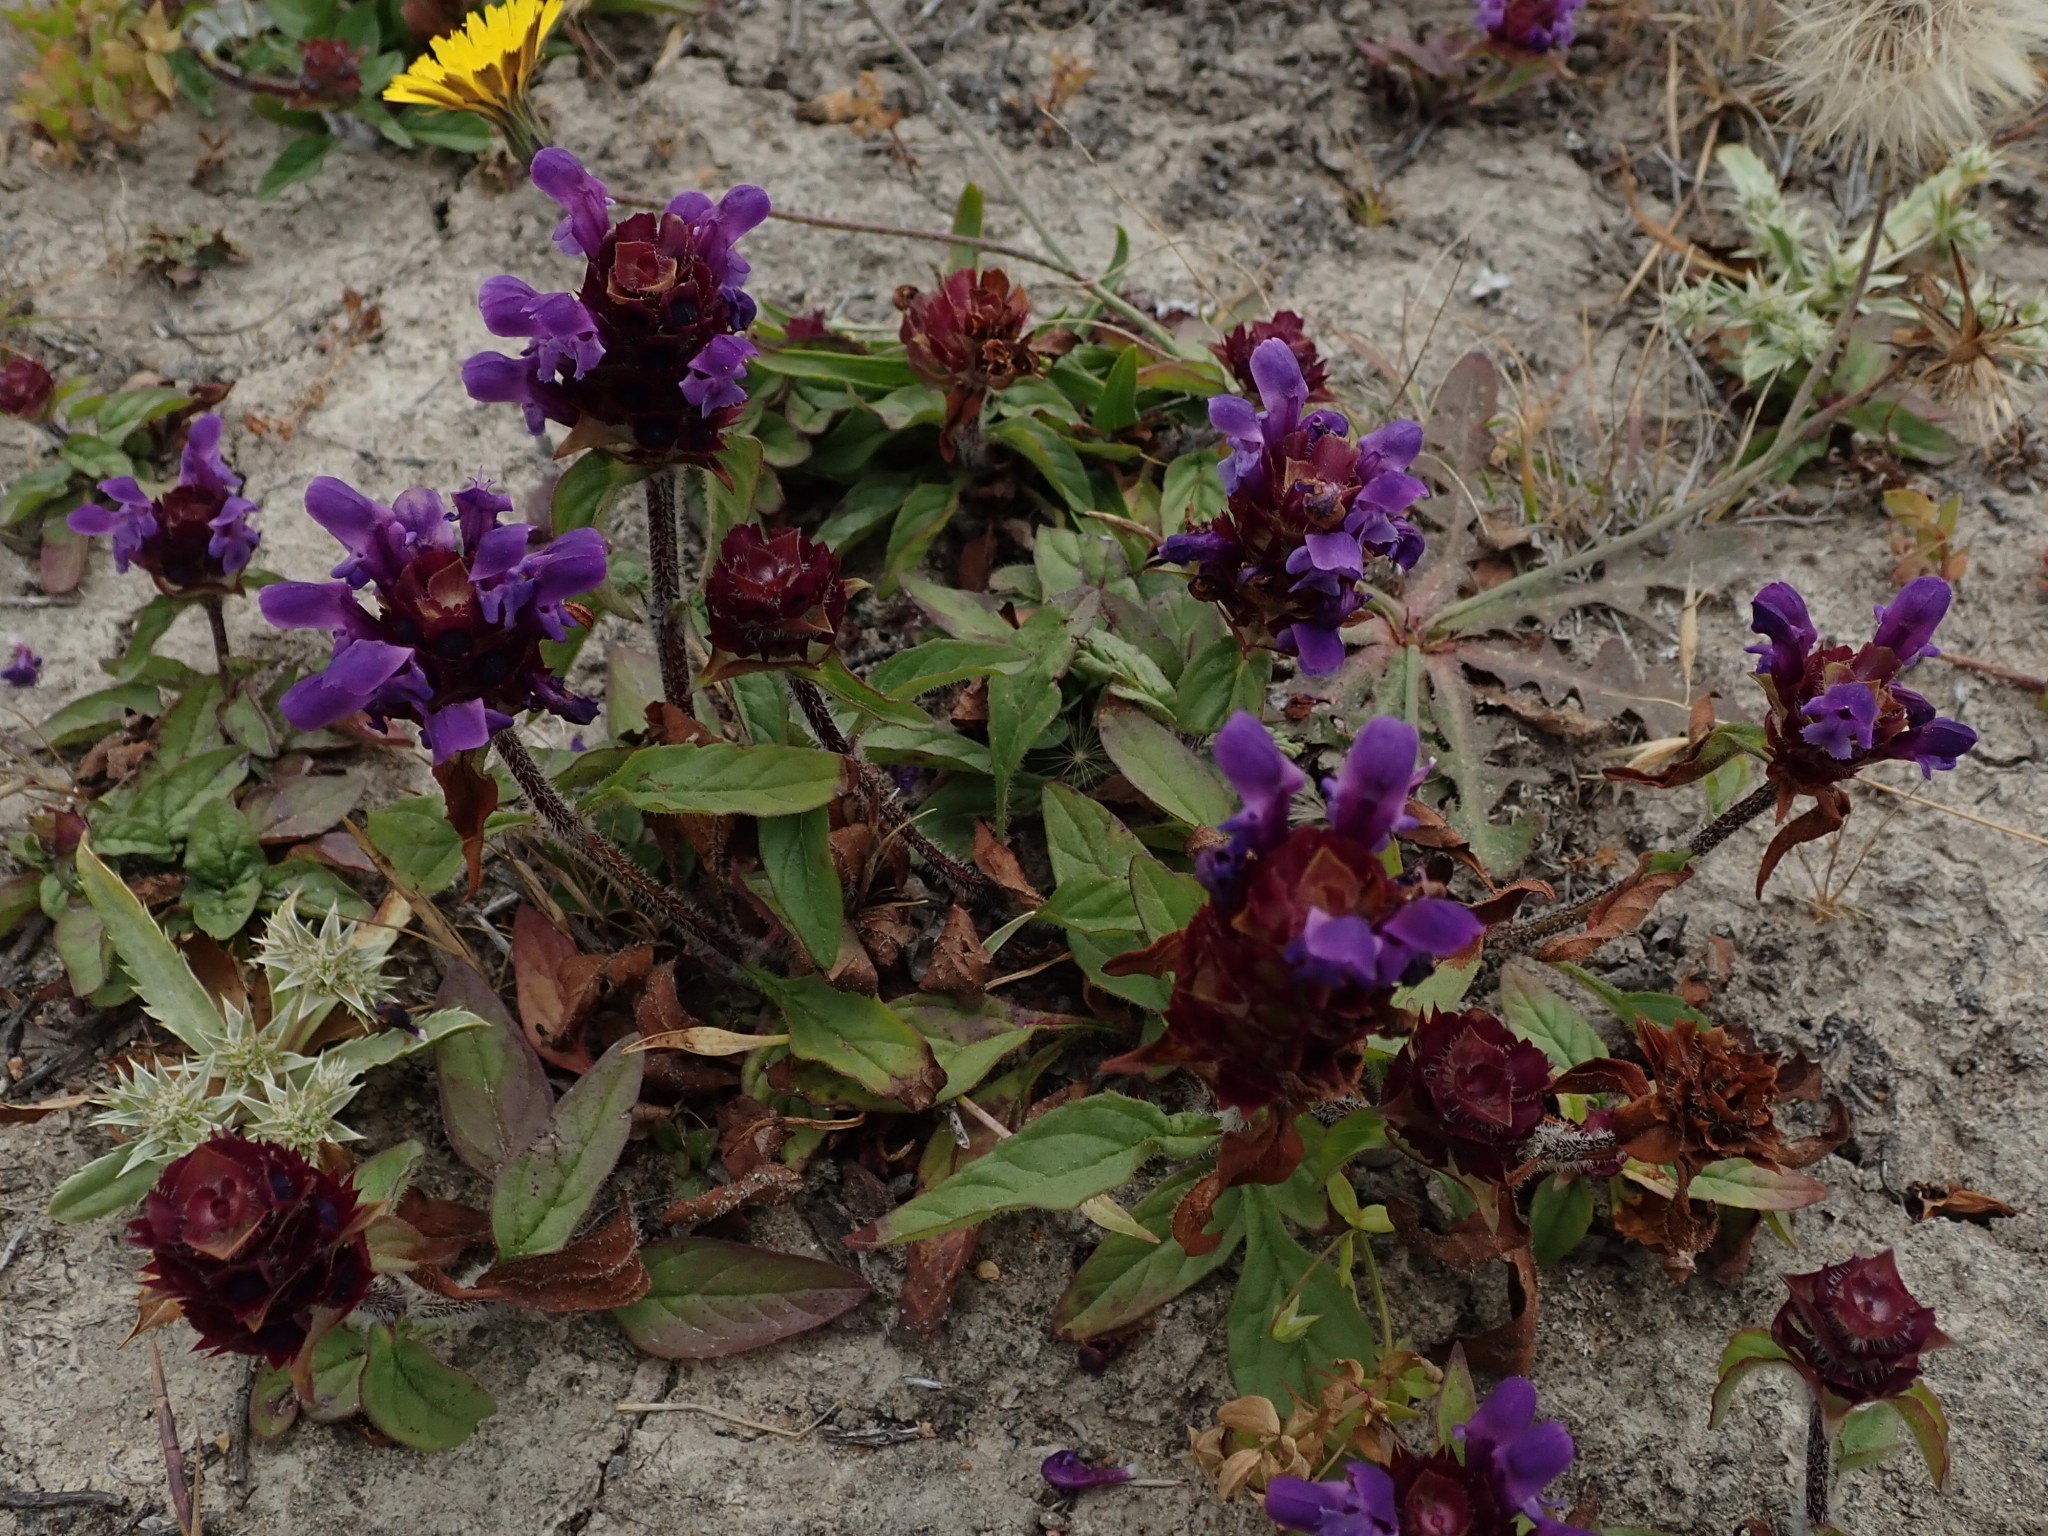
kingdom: Plantae
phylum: Tracheophyta
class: Magnoliopsida
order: Lamiales
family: Lamiaceae
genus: Prunella
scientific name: Prunella vulgaris
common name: Heal-all
